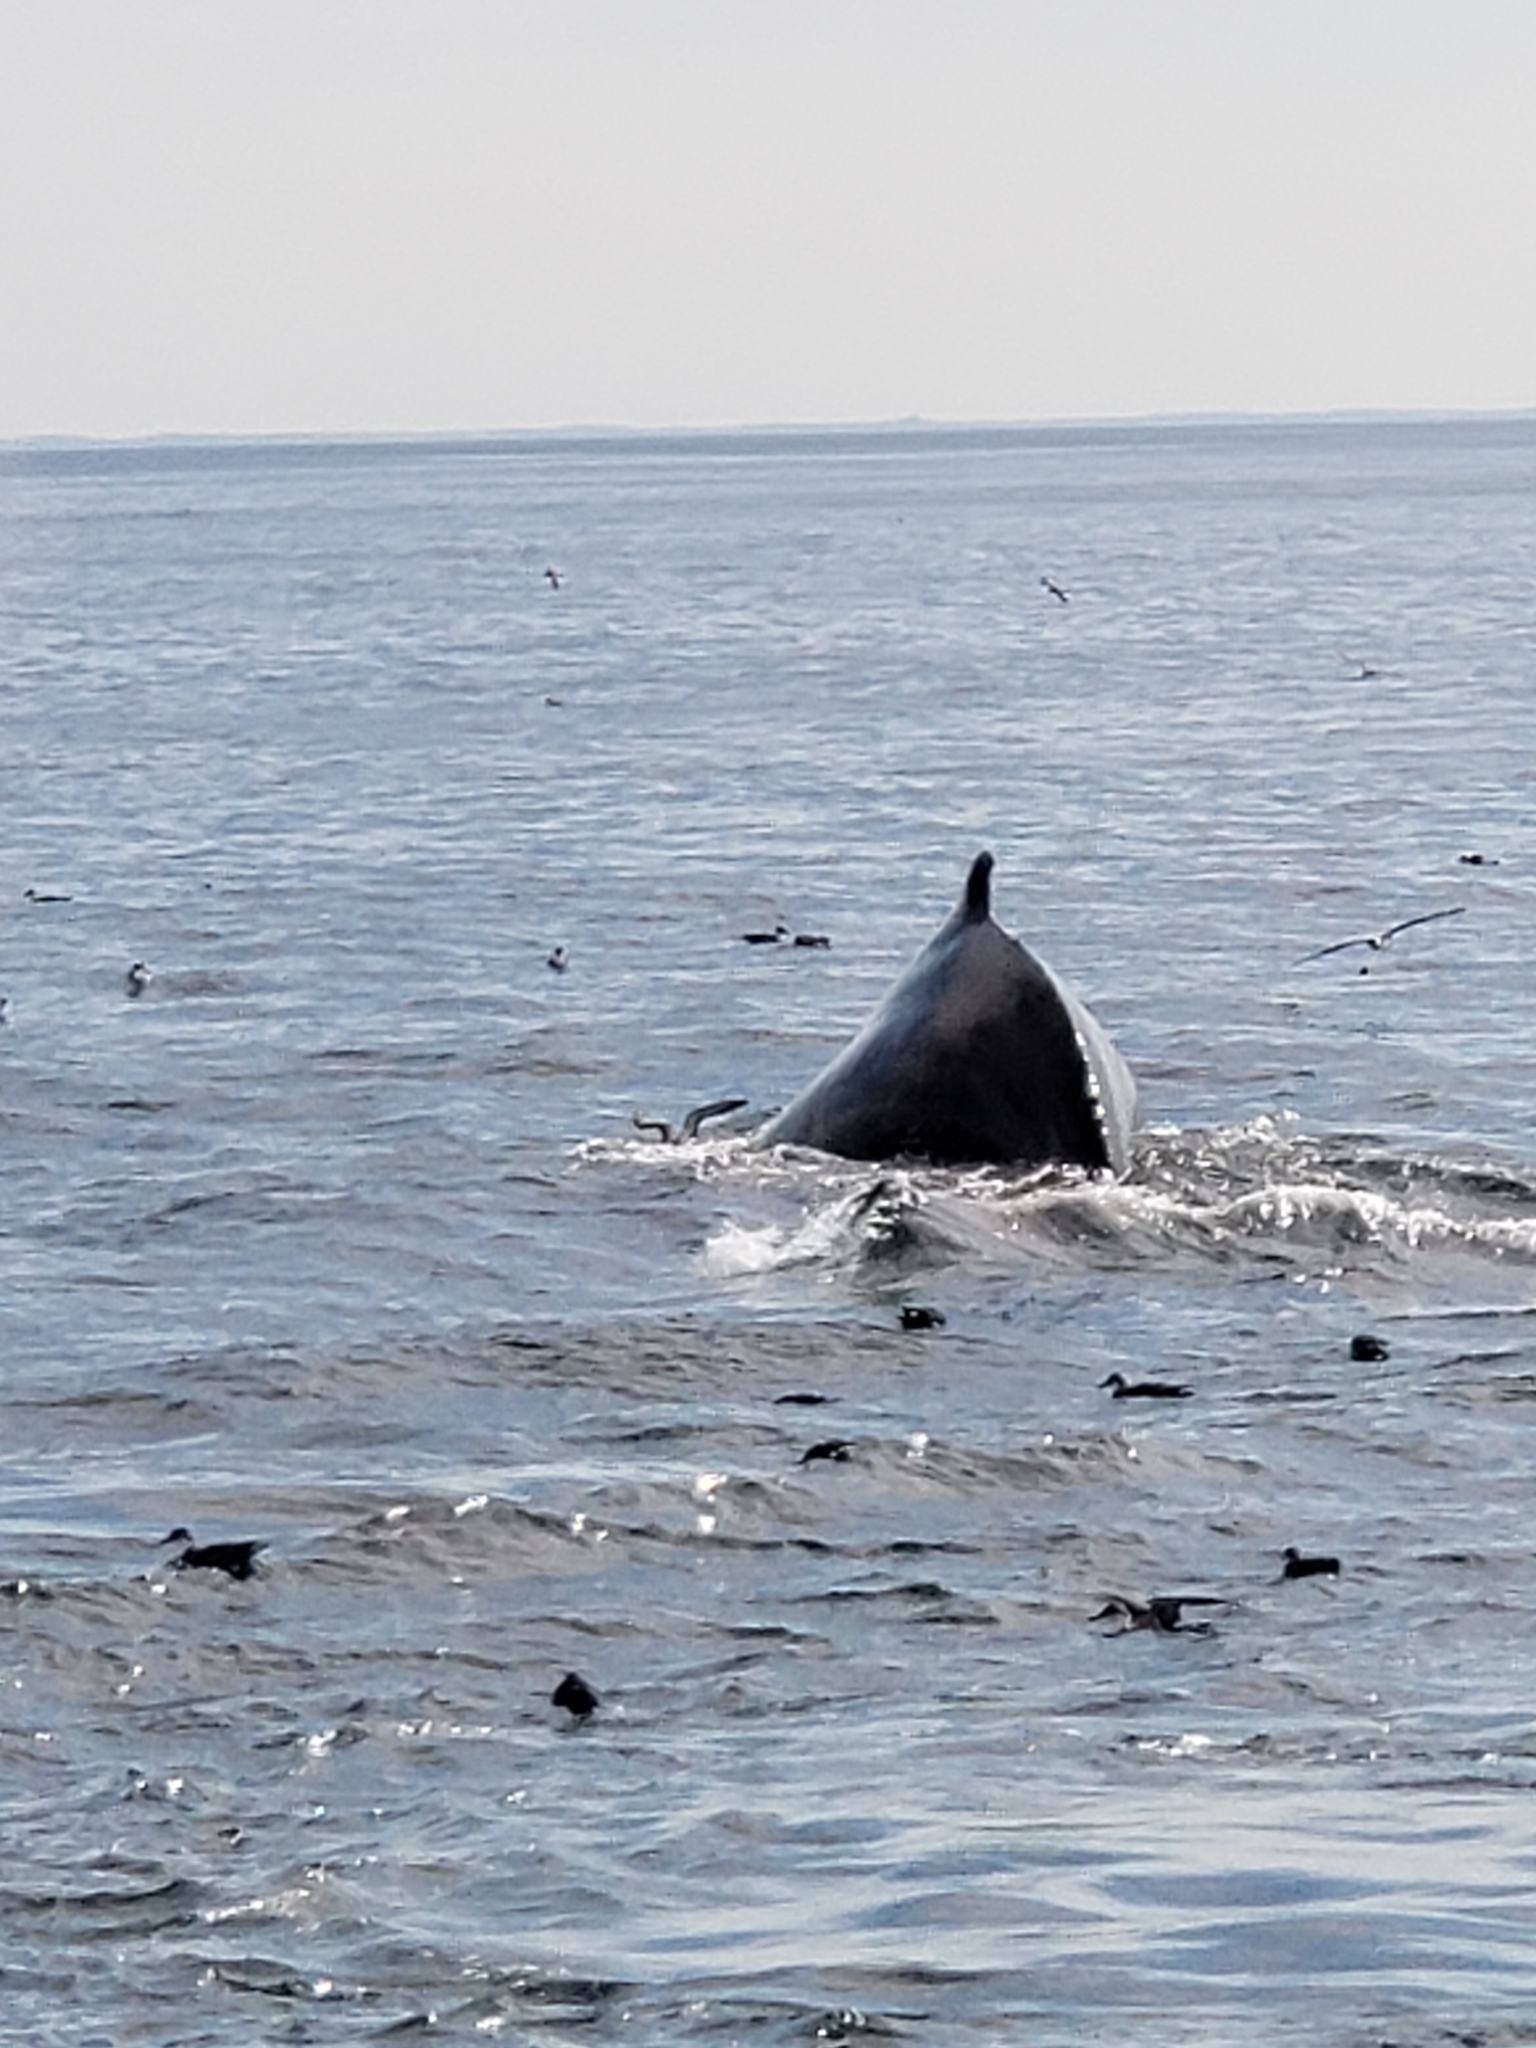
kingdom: Animalia
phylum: Chordata
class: Mammalia
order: Cetacea
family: Balaenopteridae
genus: Megaptera
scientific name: Megaptera novaeangliae
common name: Humpback whale
